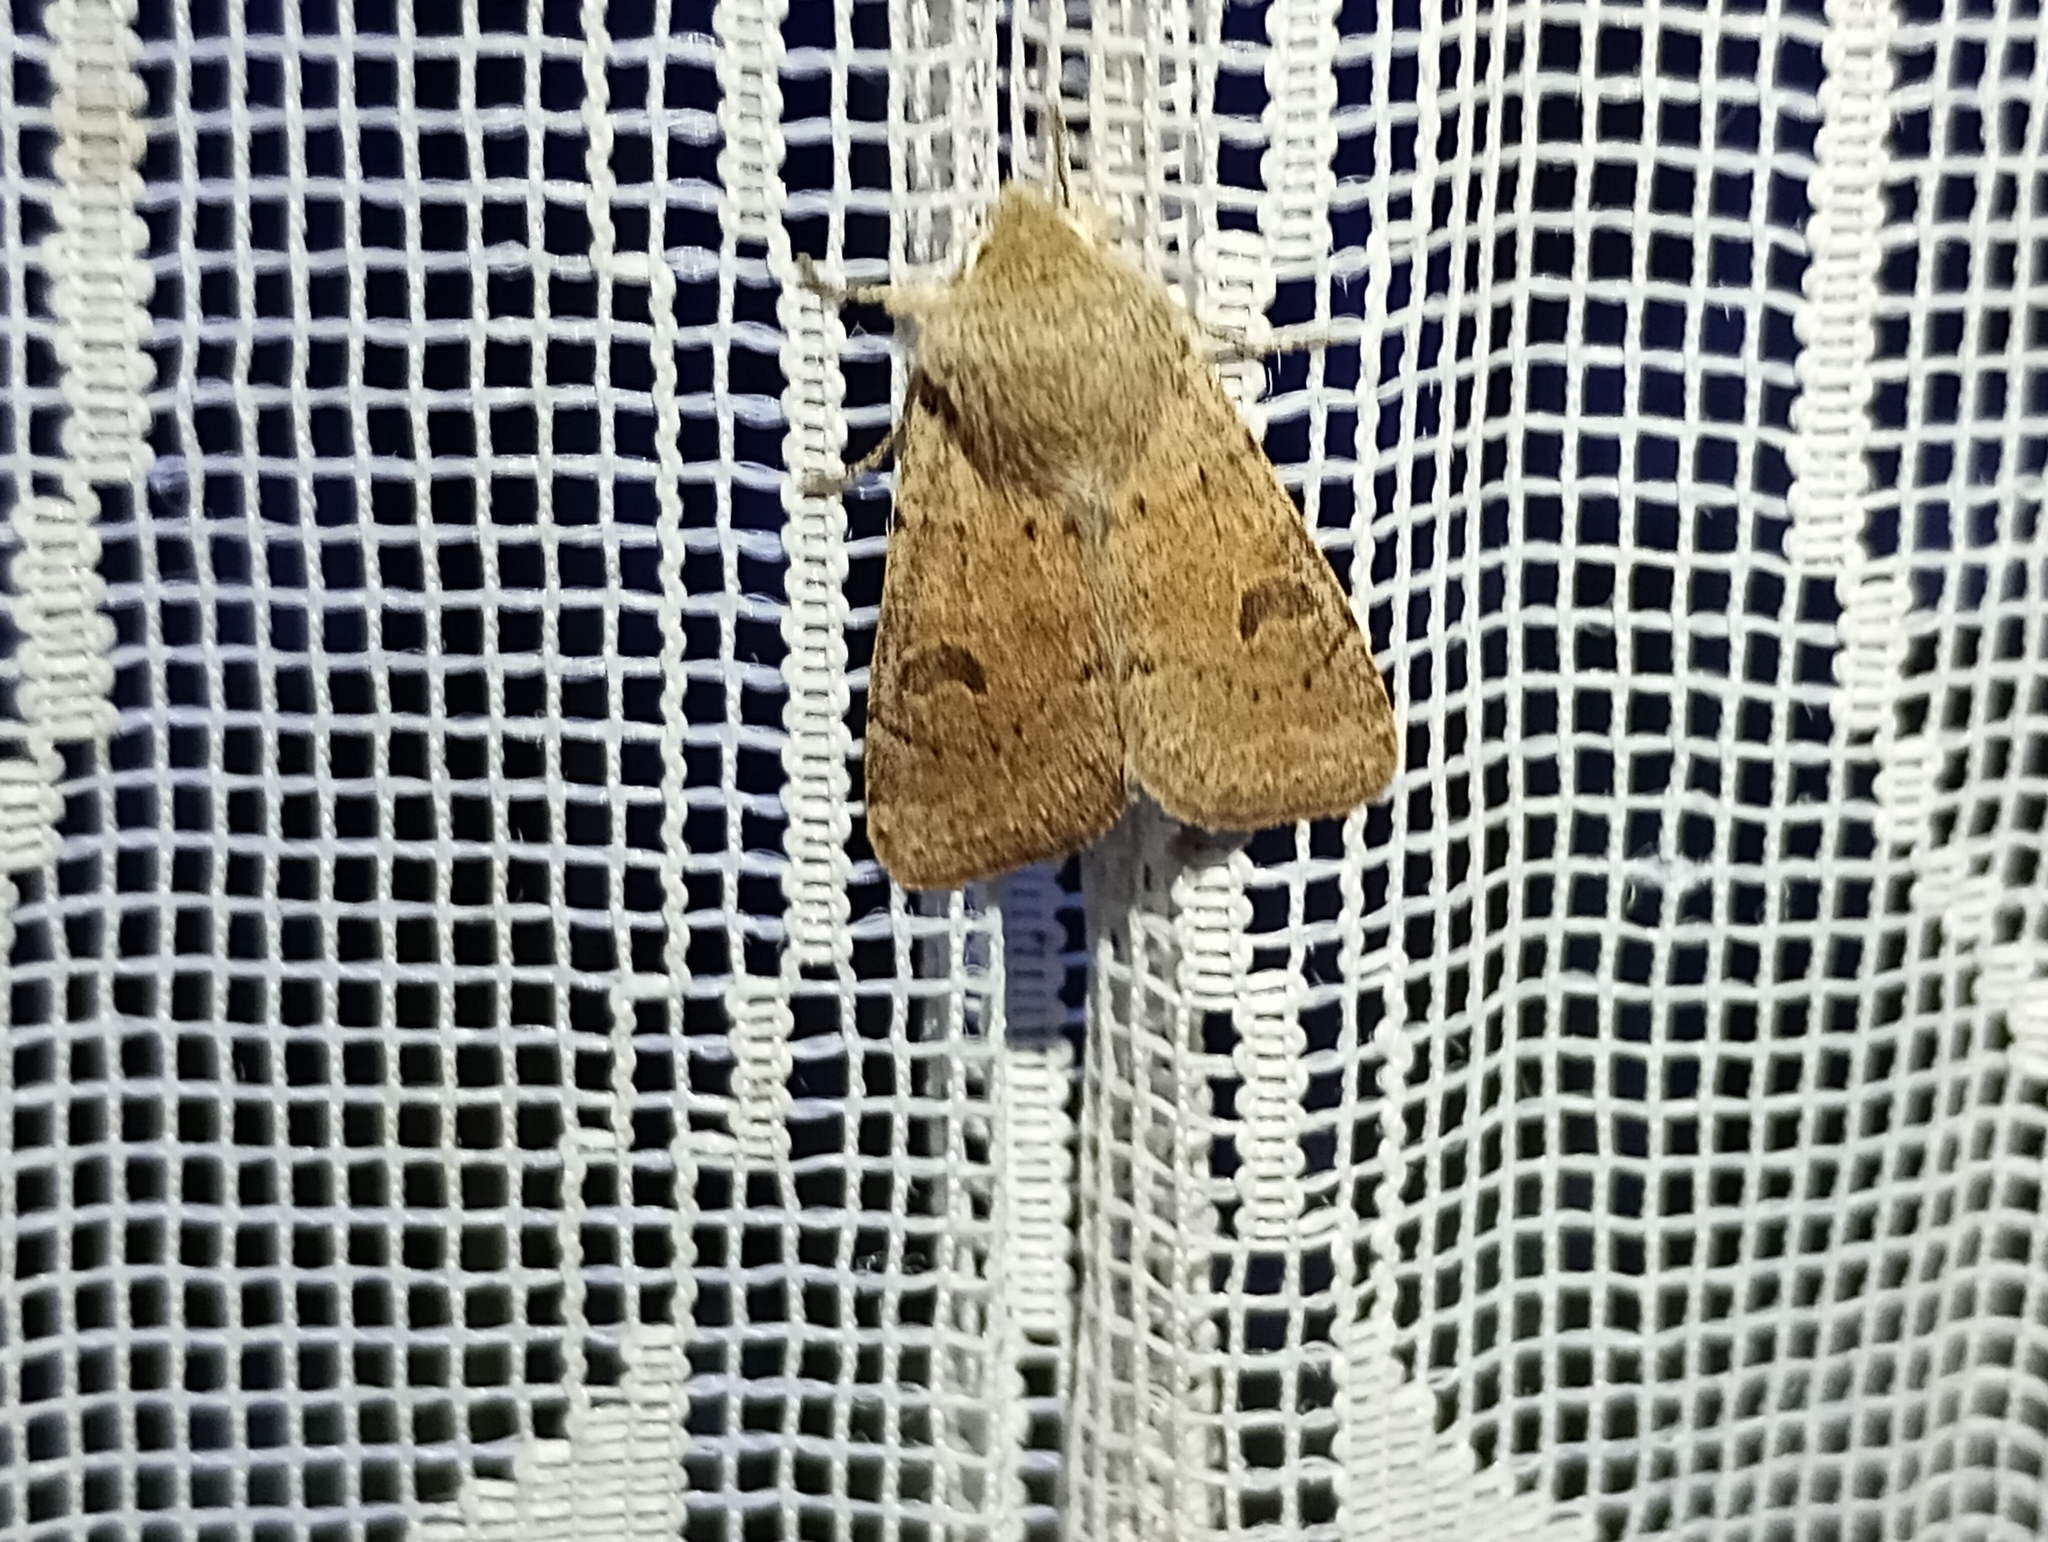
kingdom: Animalia
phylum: Arthropoda
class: Insecta
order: Lepidoptera
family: Noctuidae
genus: Orthosia
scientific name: Orthosia cruda
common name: Small quaker
